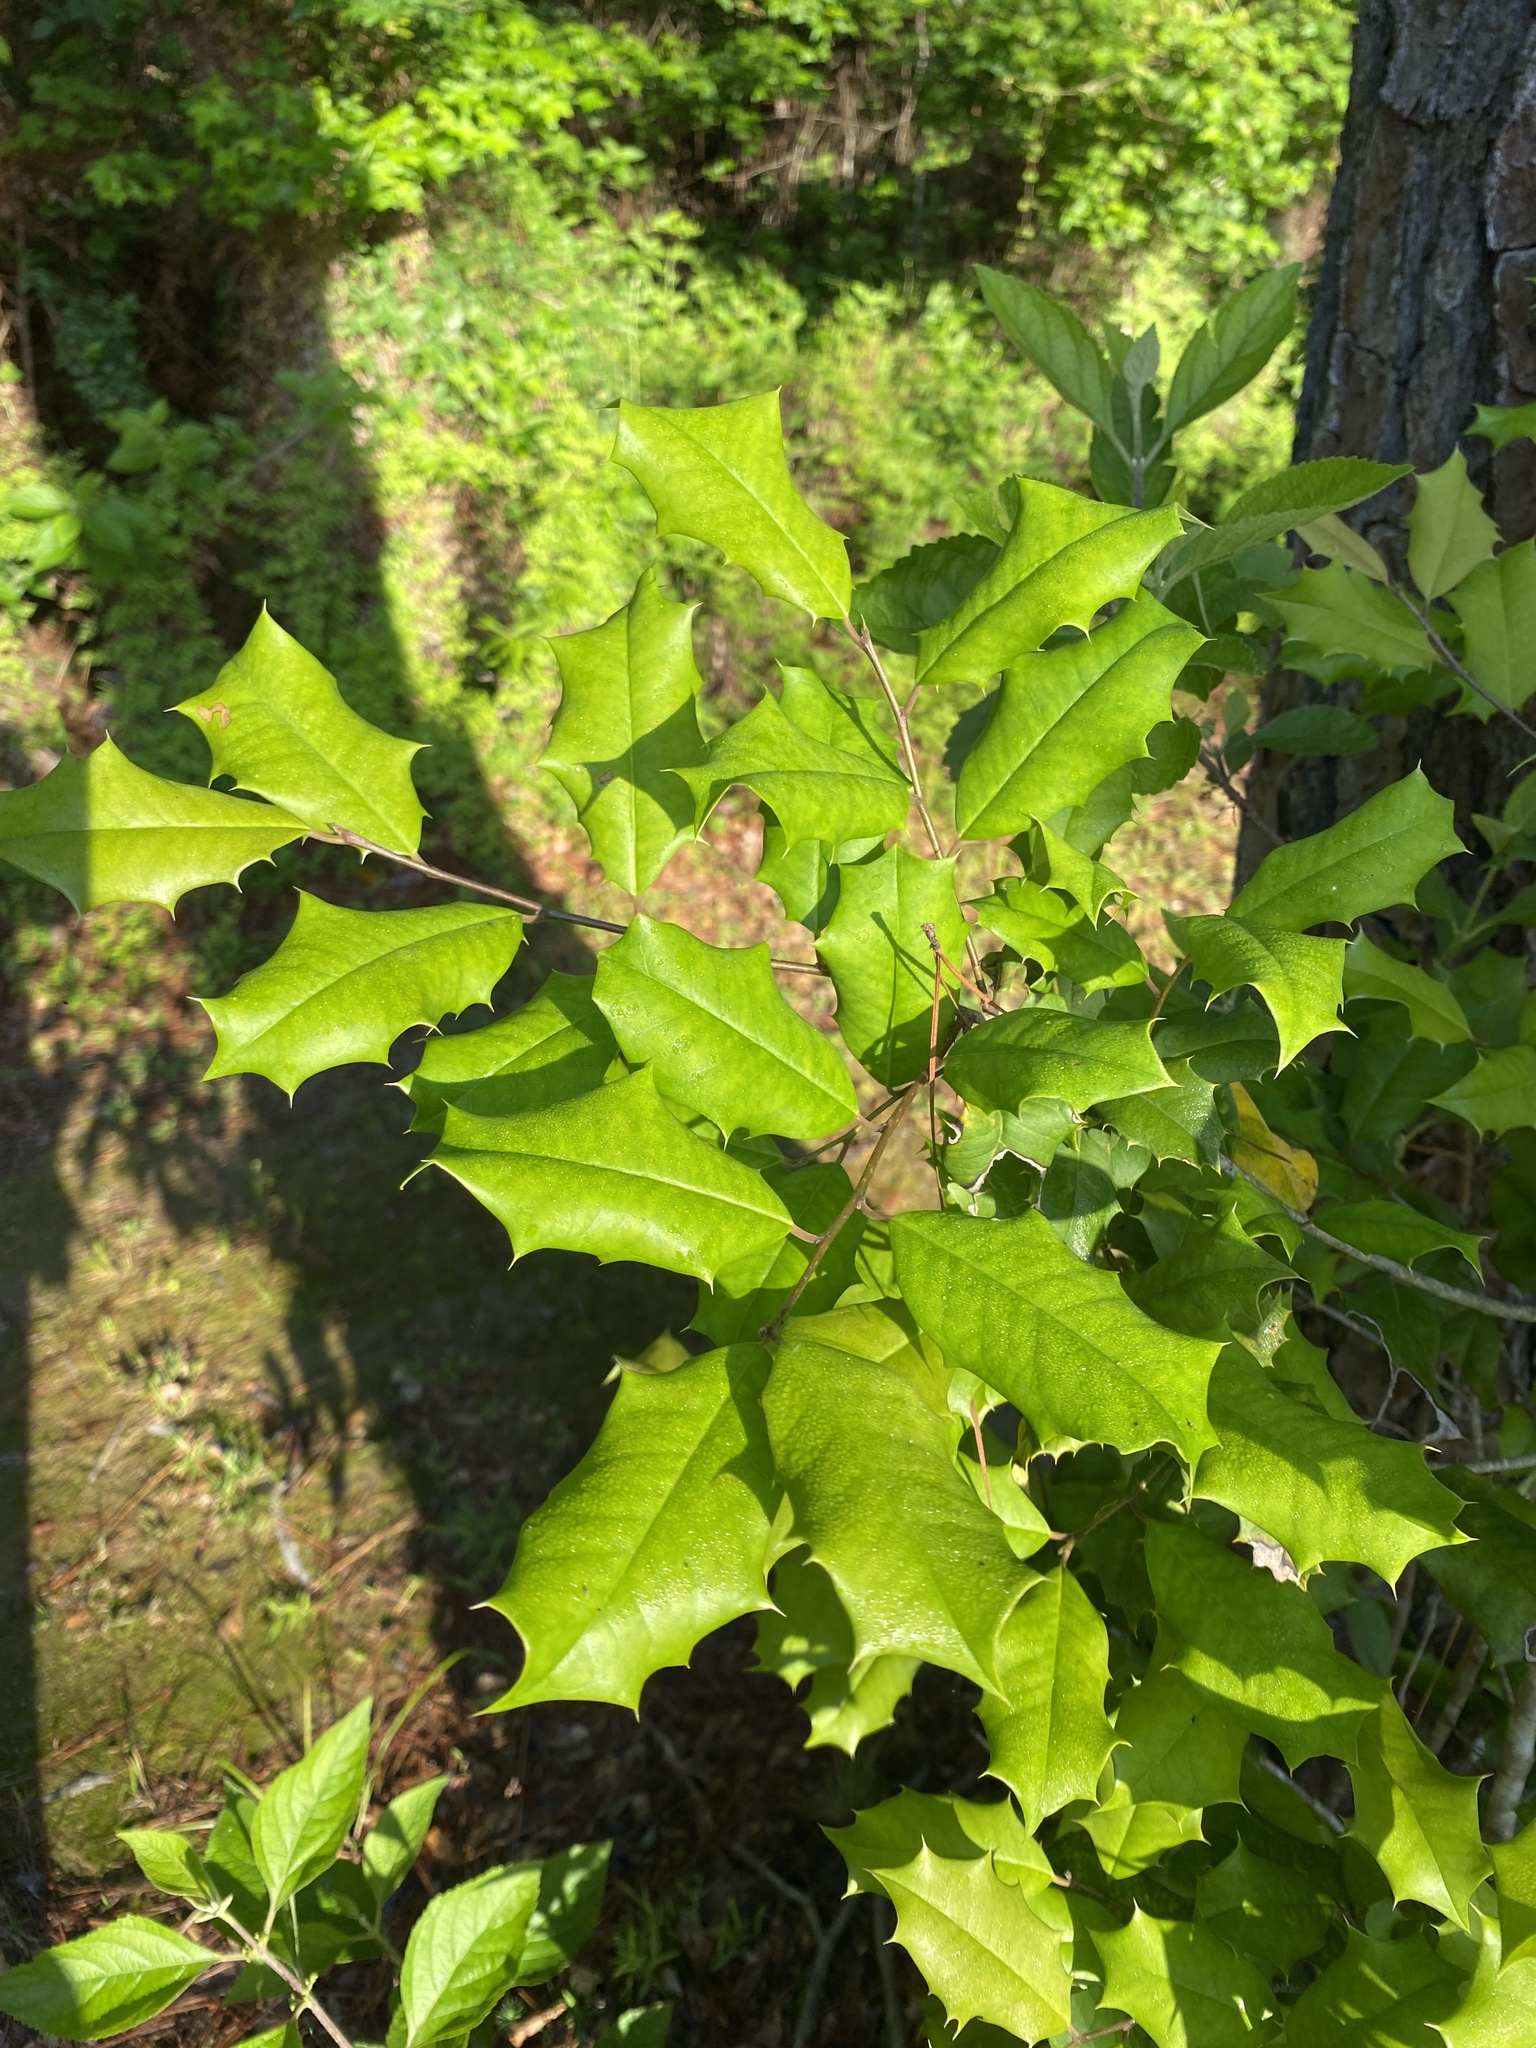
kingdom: Plantae
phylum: Tracheophyta
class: Magnoliopsida
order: Aquifoliales
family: Aquifoliaceae
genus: Ilex
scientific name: Ilex opaca
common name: American holly
